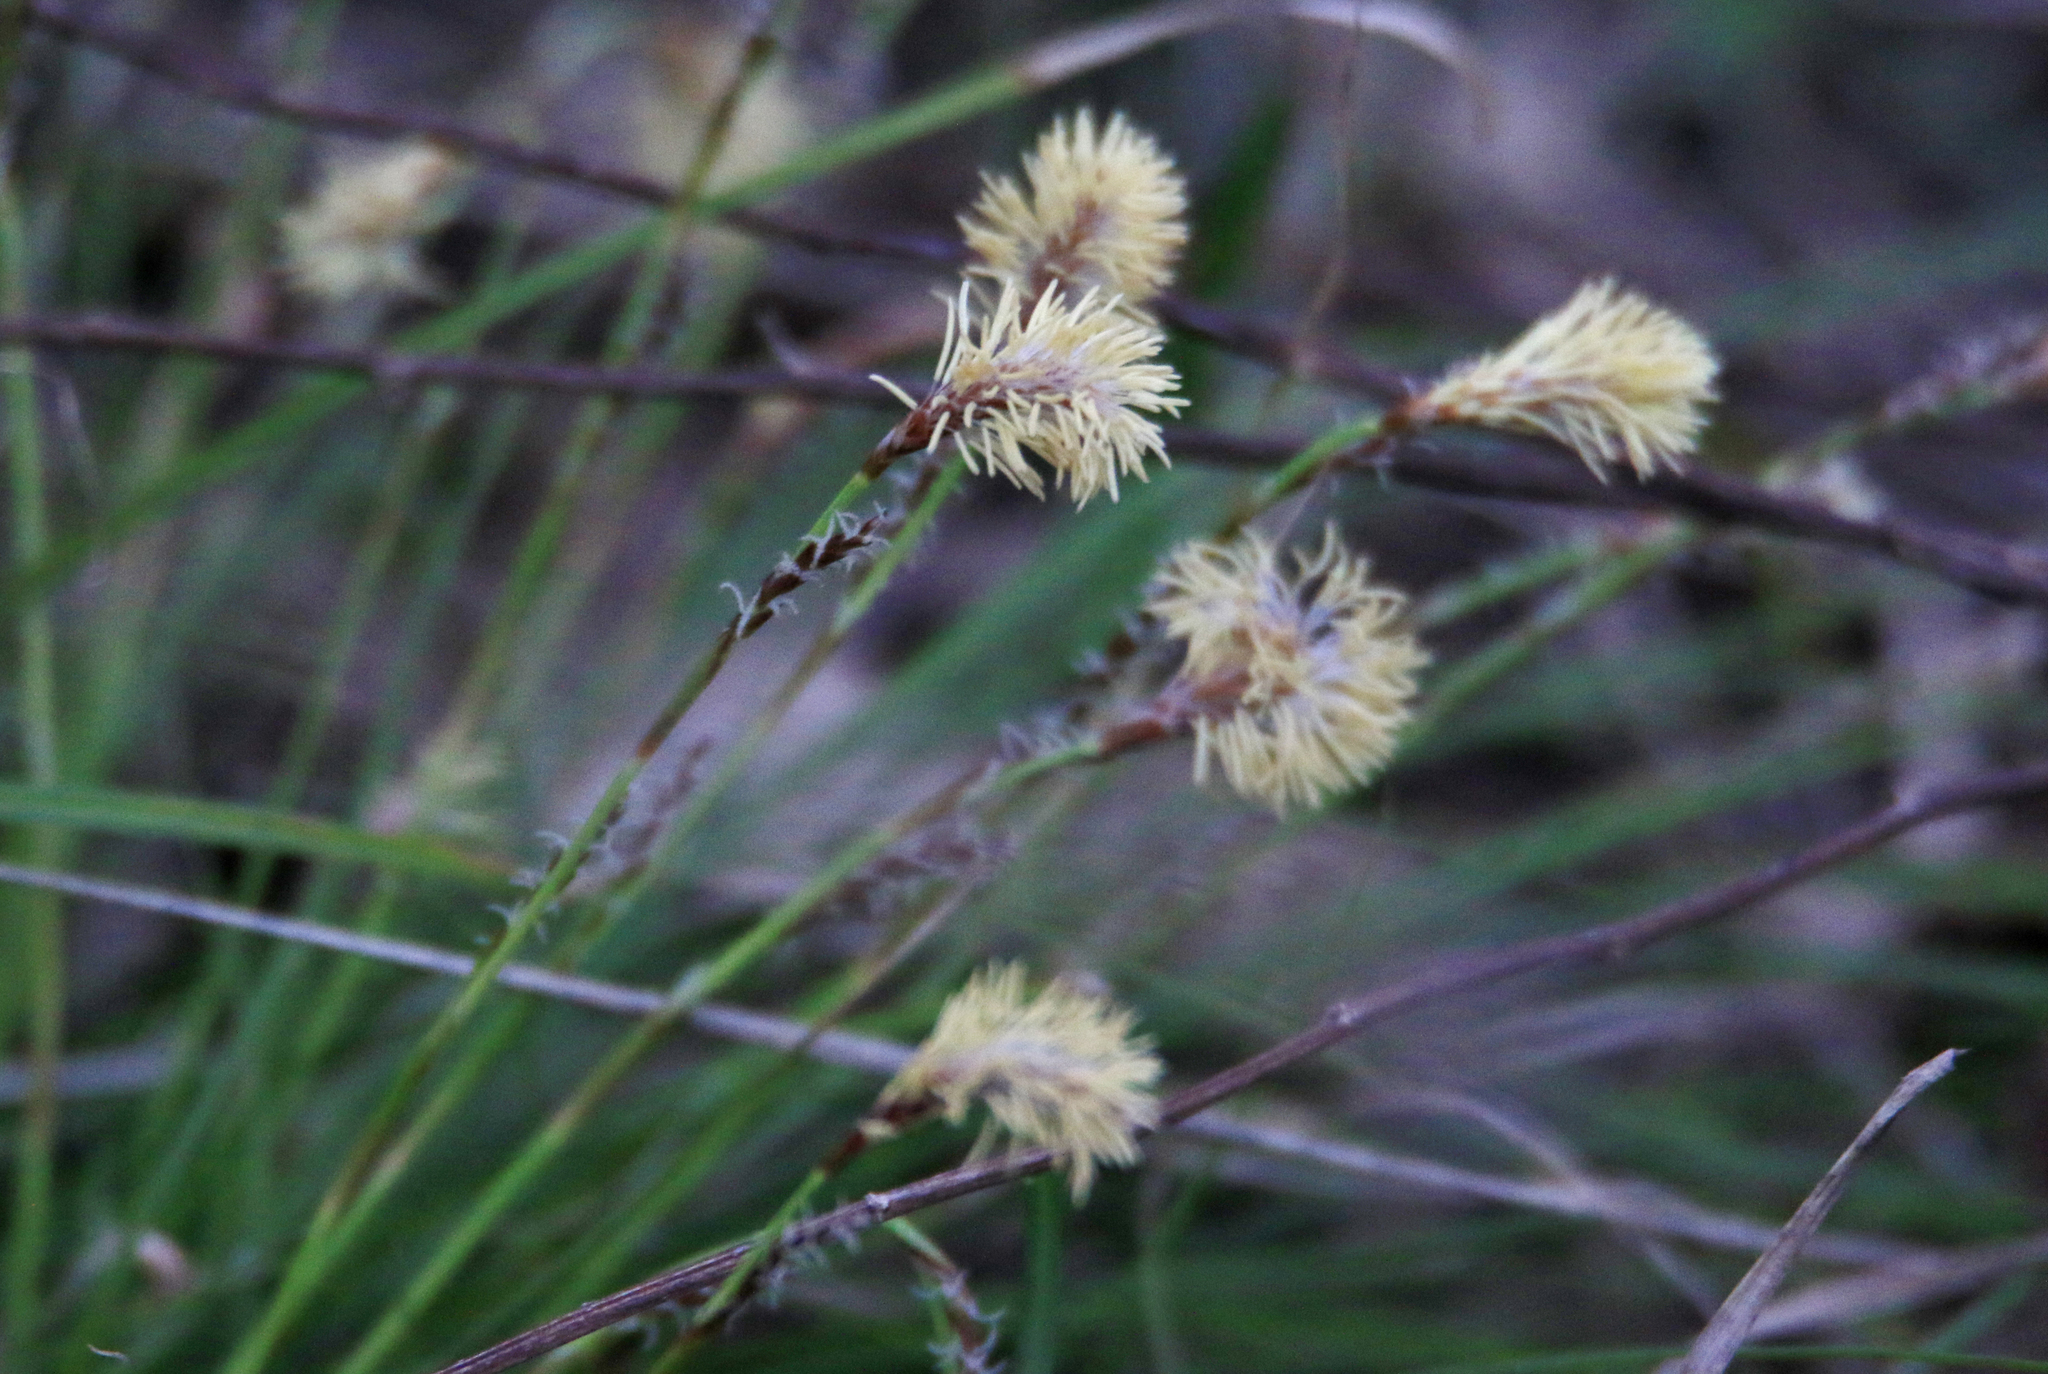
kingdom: Plantae
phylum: Tracheophyta
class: Liliopsida
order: Poales
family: Cyperaceae
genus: Carex
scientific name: Carex pediformis
